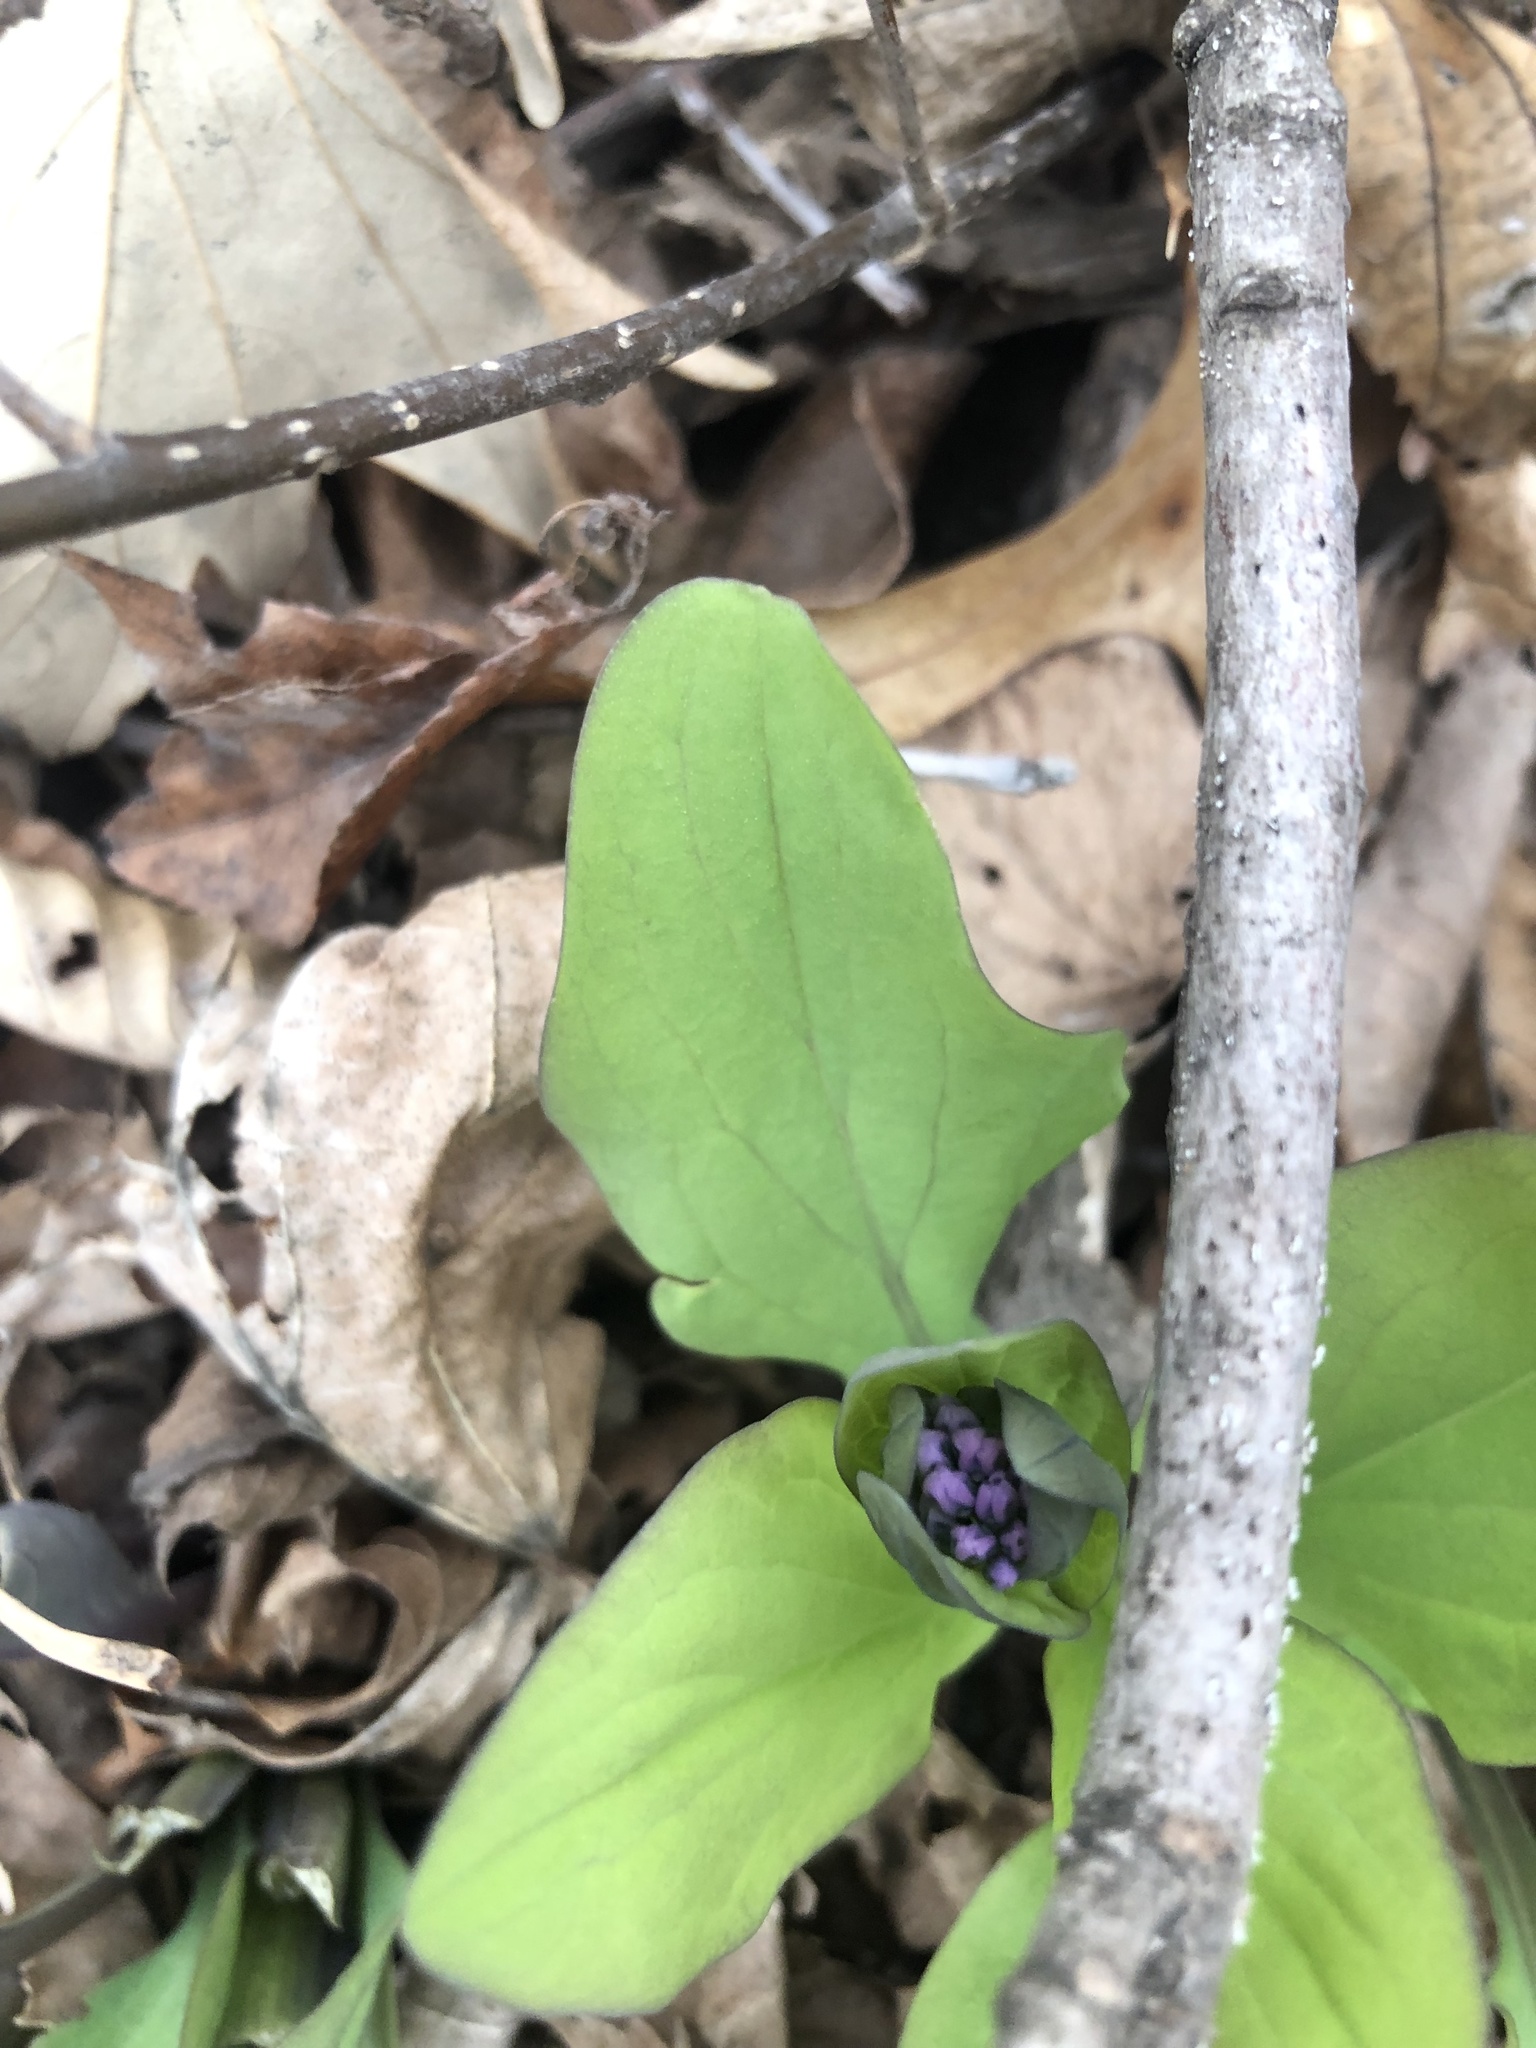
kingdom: Plantae
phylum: Tracheophyta
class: Magnoliopsida
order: Boraginales
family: Boraginaceae
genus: Mertensia
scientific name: Mertensia virginica
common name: Virginia bluebells
